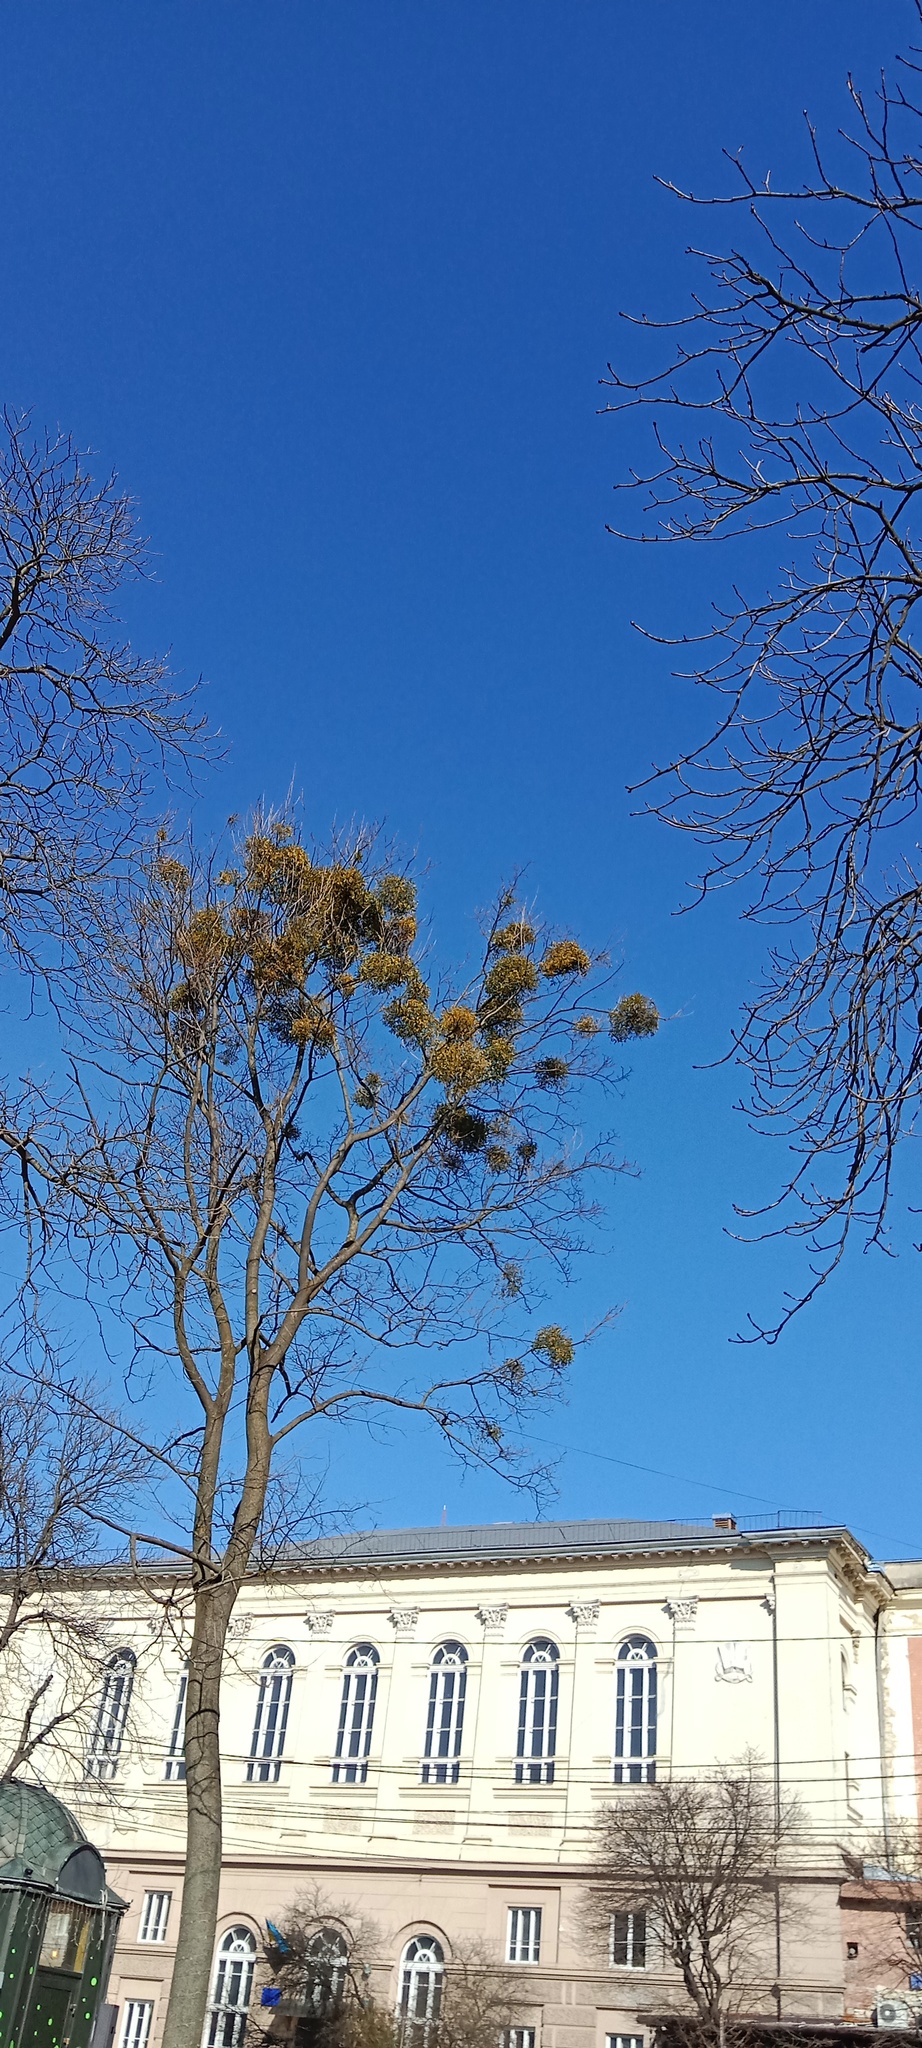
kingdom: Plantae
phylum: Tracheophyta
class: Magnoliopsida
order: Santalales
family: Viscaceae
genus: Viscum
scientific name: Viscum album
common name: Mistletoe
